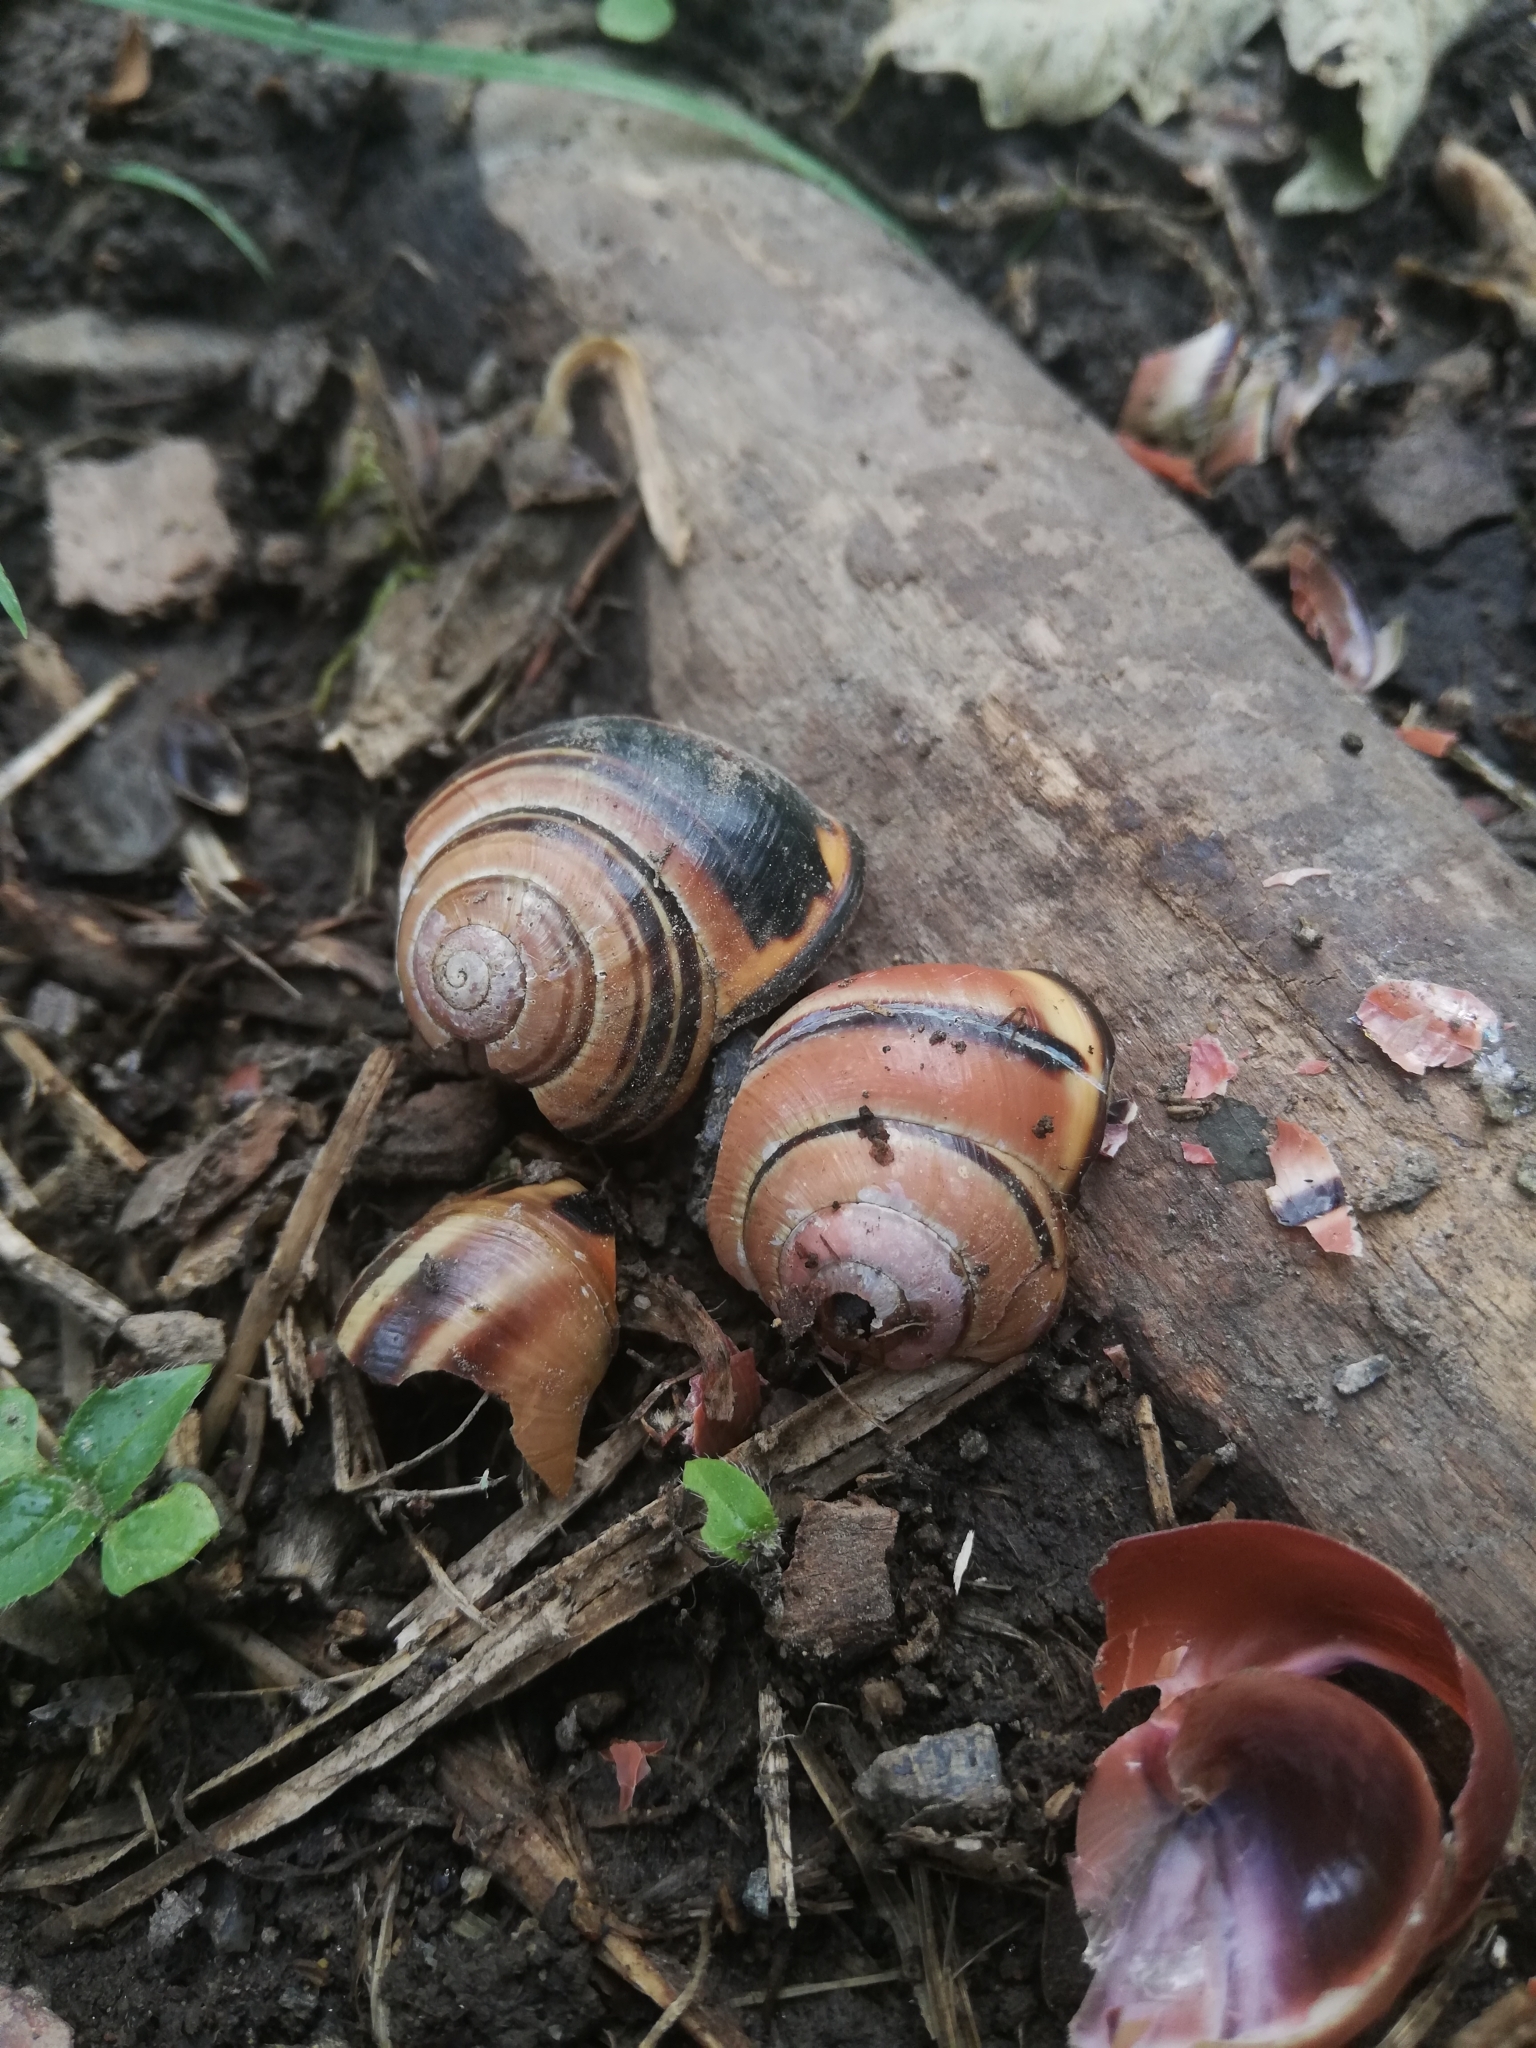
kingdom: Animalia
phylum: Mollusca
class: Gastropoda
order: Stylommatophora
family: Helicidae
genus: Cepaea
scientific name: Cepaea nemoralis
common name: Grovesnail
